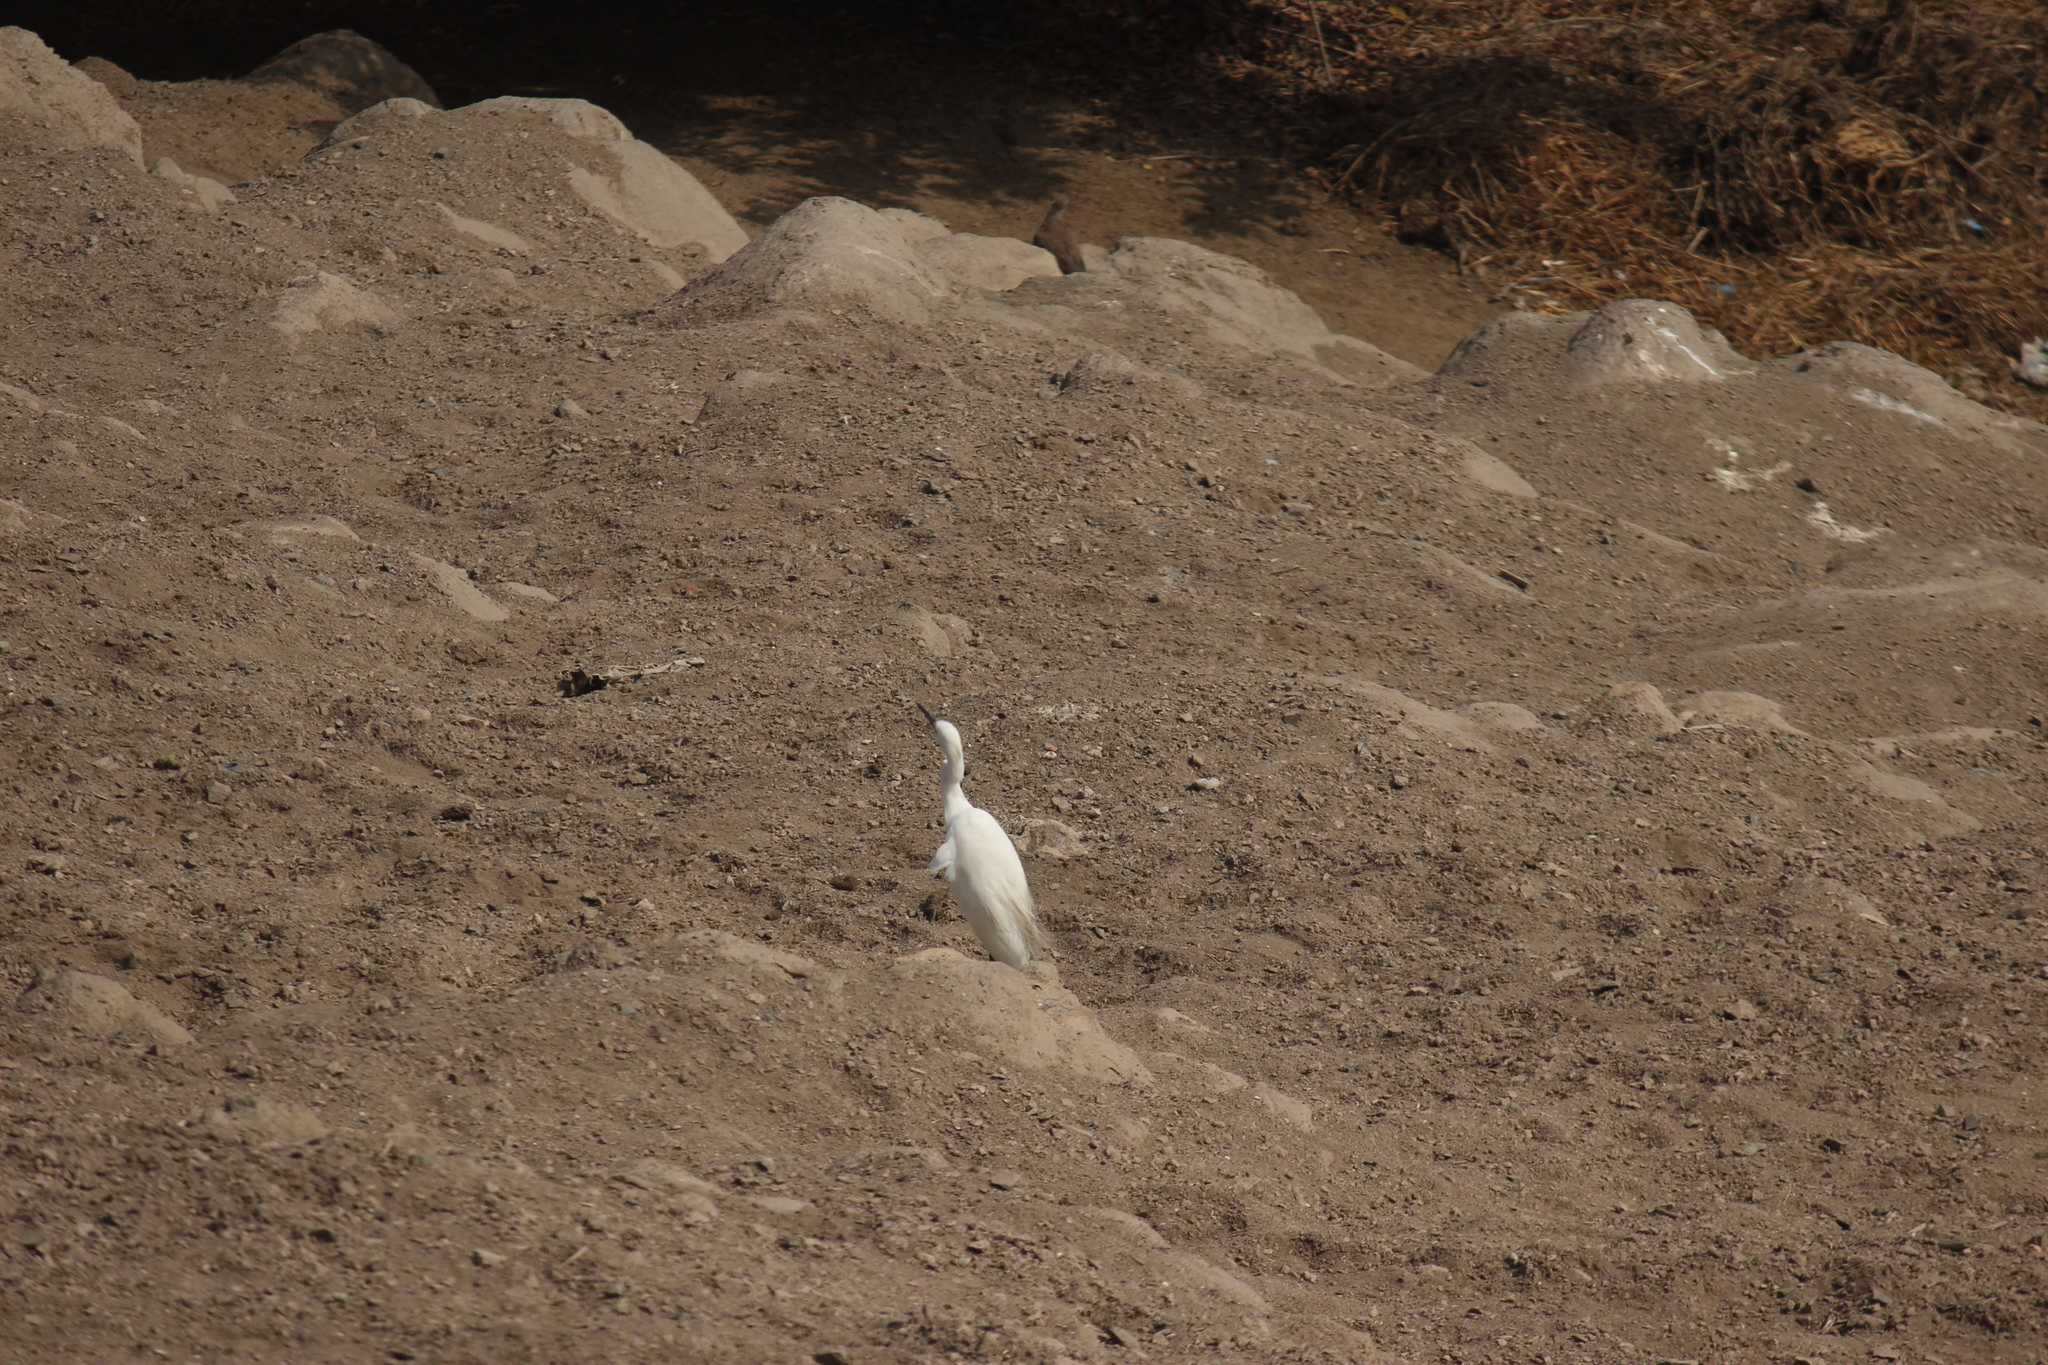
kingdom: Animalia
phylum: Chordata
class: Aves
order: Pelecaniformes
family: Ardeidae
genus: Egretta
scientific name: Egretta thula
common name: Snowy egret
